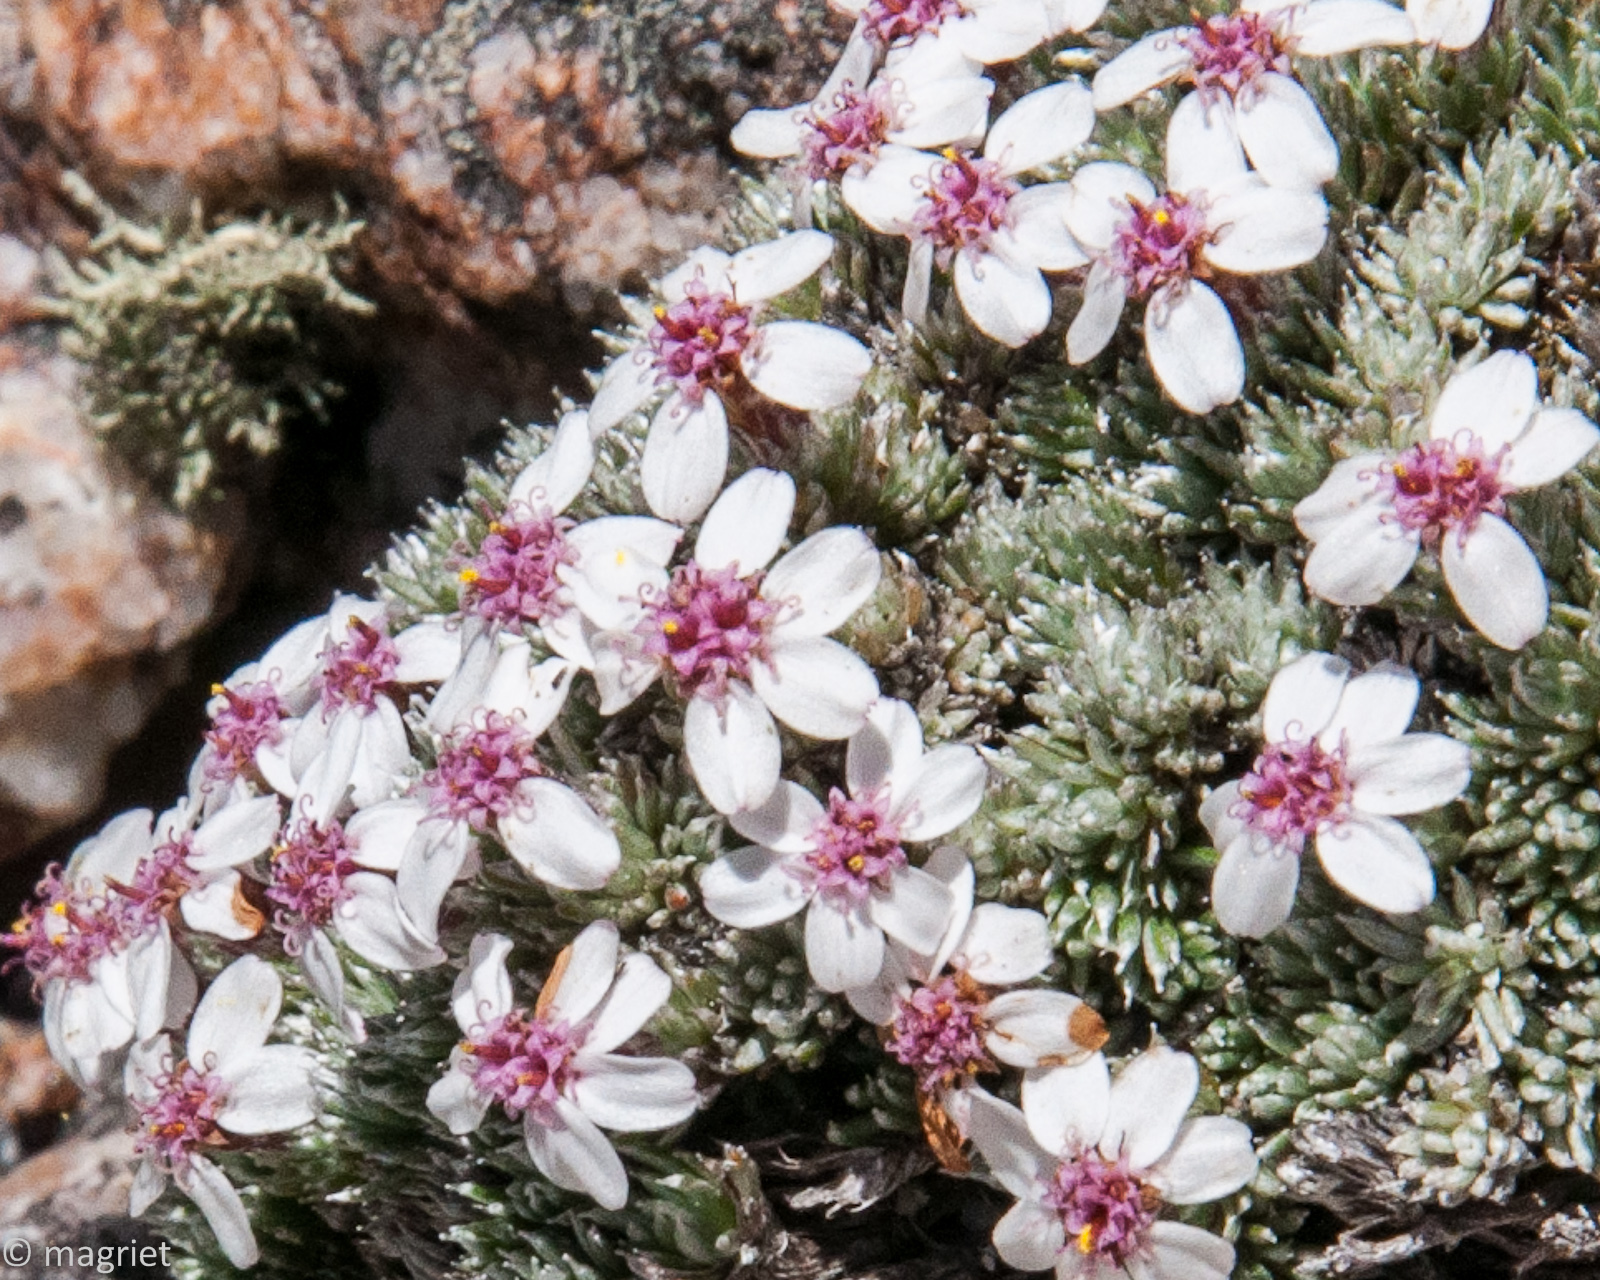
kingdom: Plantae
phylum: Tracheophyta
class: Magnoliopsida
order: Asterales
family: Asteraceae
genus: Muscosomorphe
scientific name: Muscosomorphe aretioides
